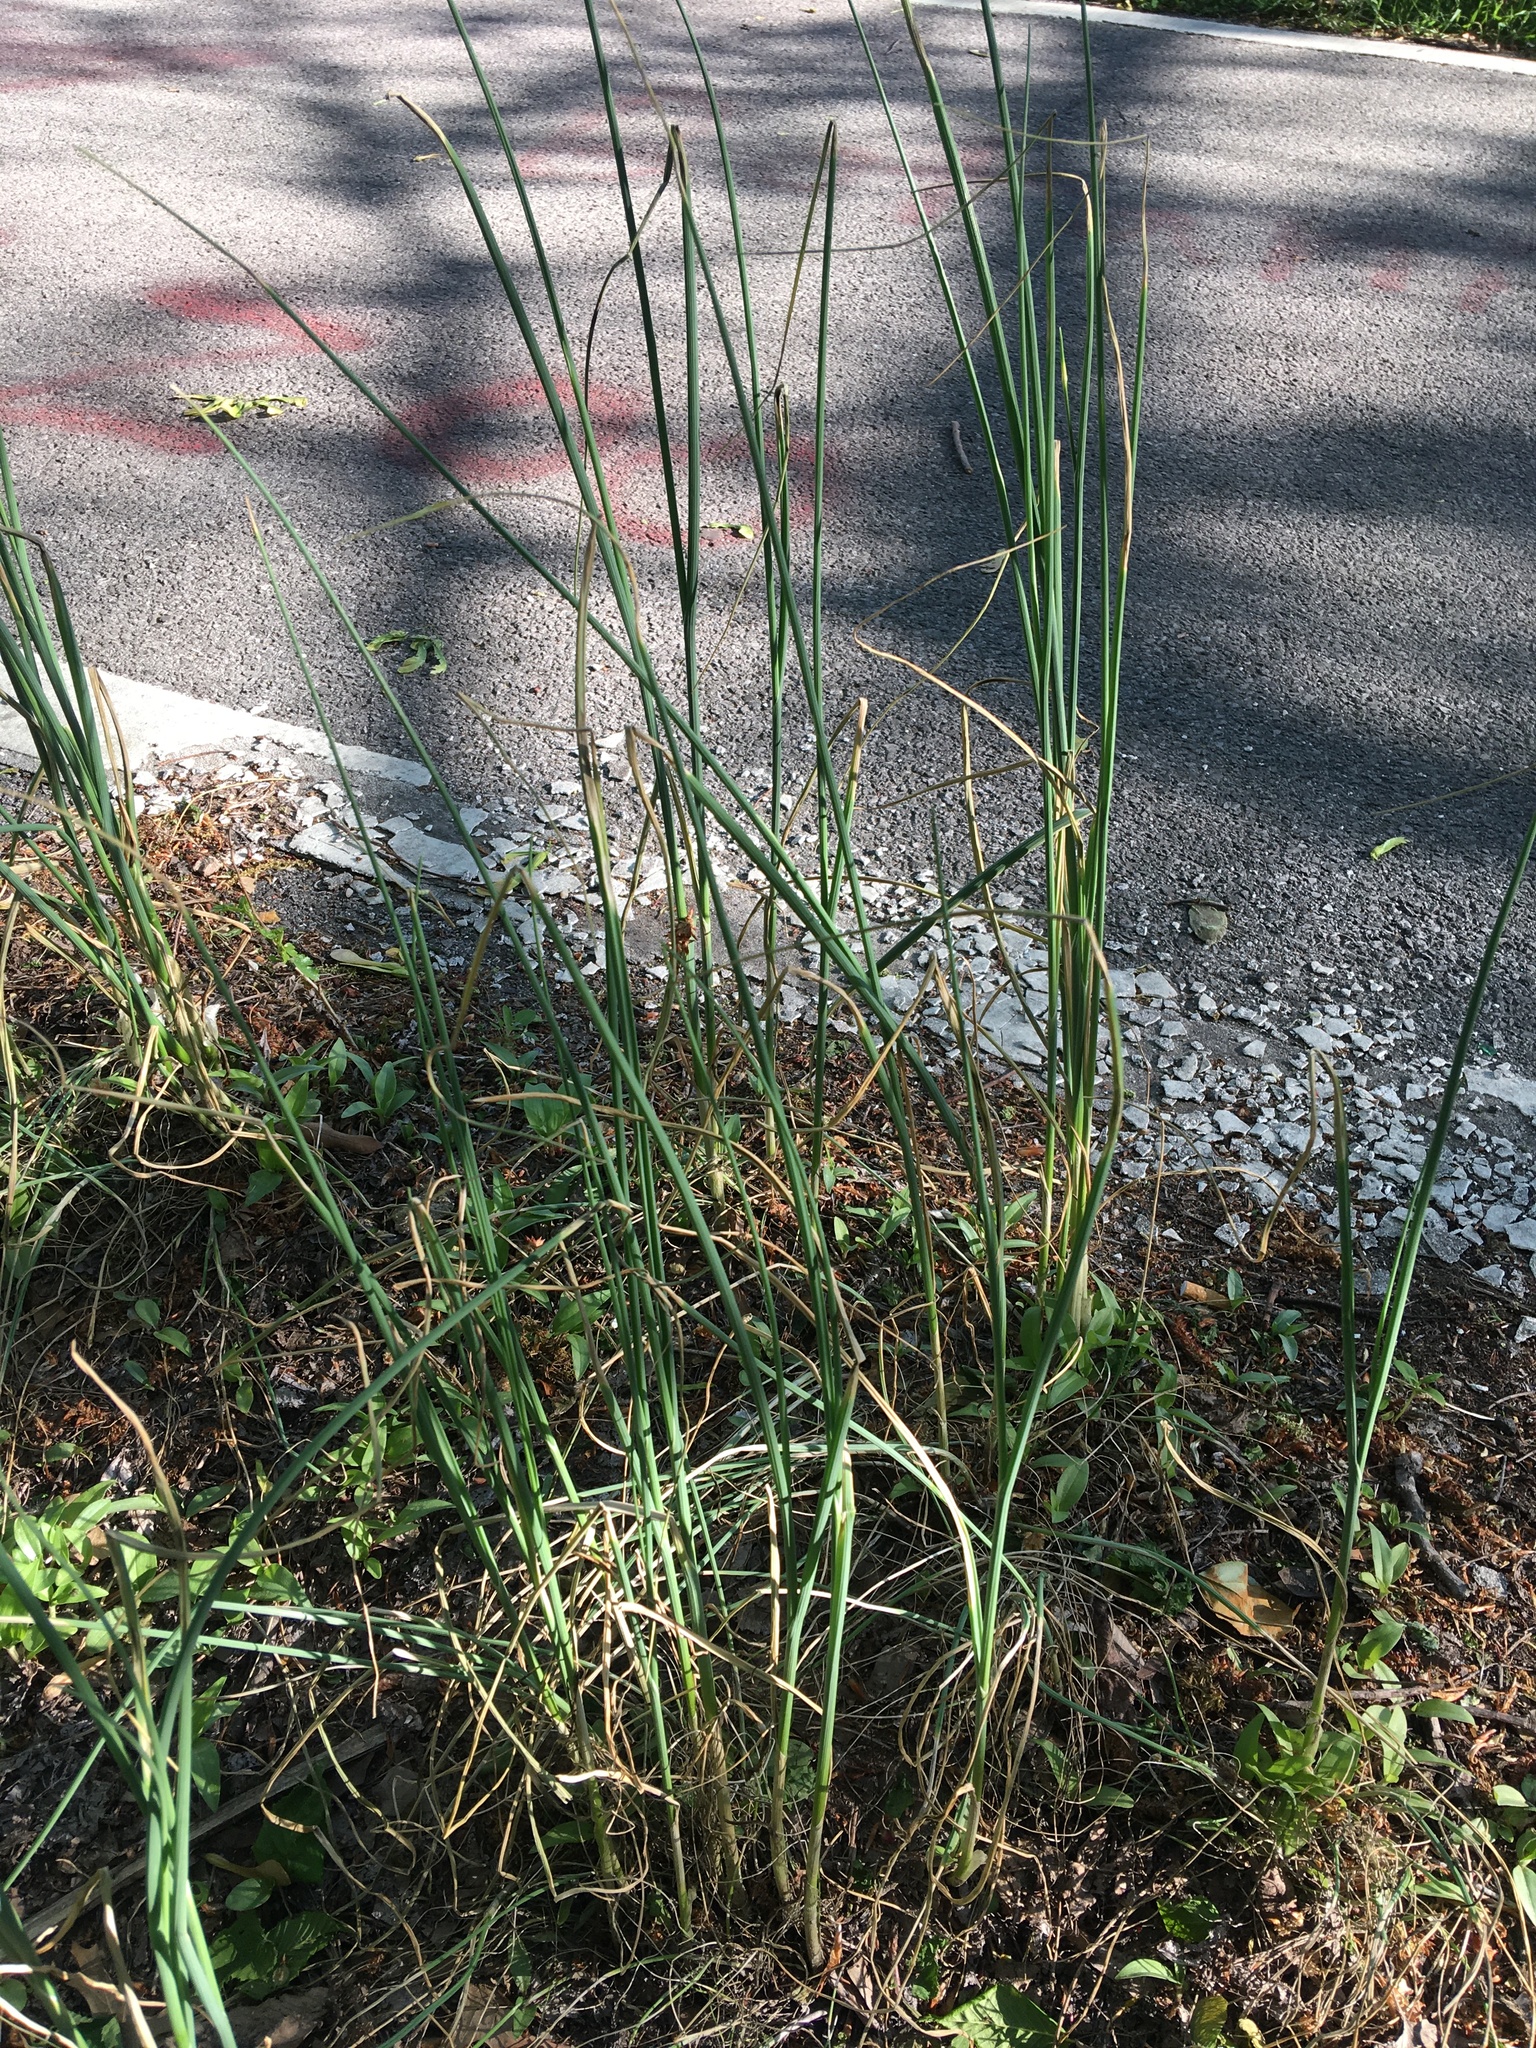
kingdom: Plantae
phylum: Tracheophyta
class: Liliopsida
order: Asparagales
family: Amaryllidaceae
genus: Allium
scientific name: Allium canadense
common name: Meadow garlic
